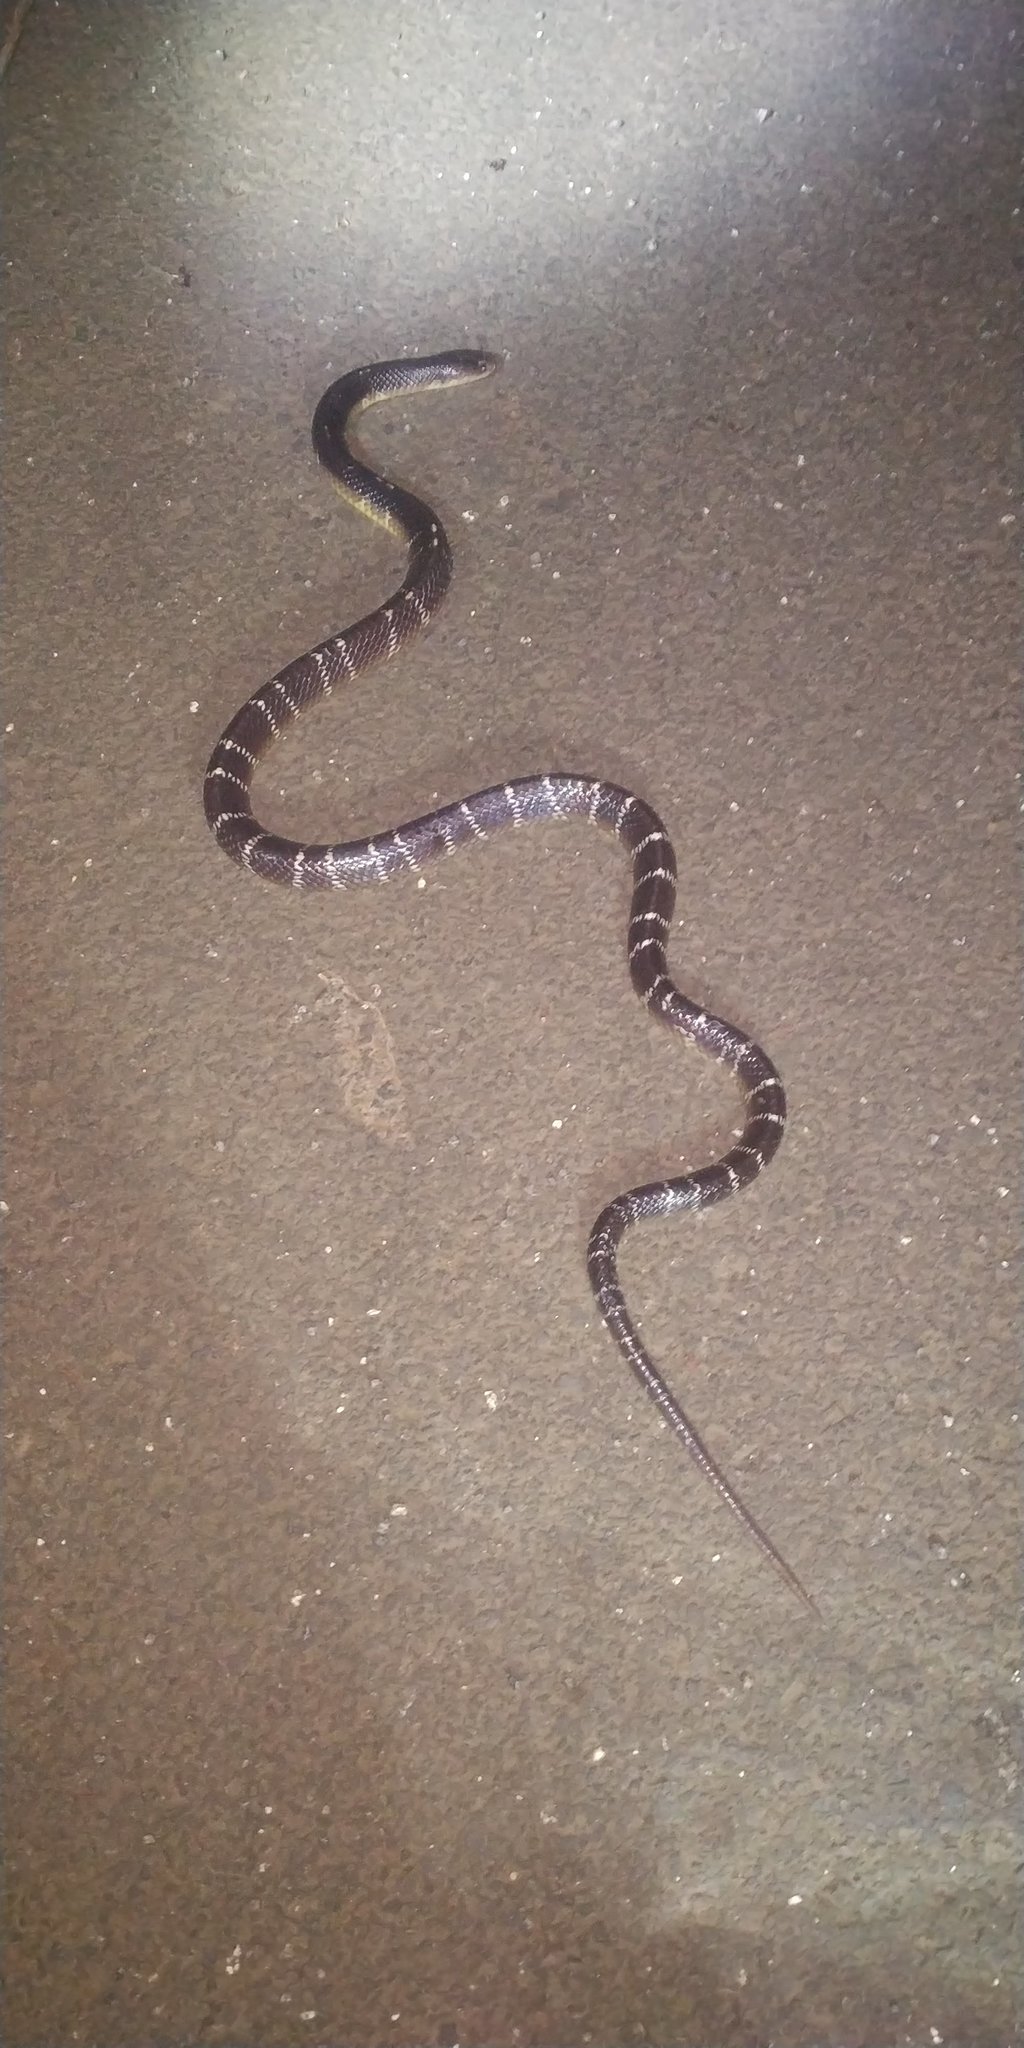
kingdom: Animalia
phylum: Chordata
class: Squamata
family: Elapidae
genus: Bungarus
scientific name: Bungarus caeruleus
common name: Common krait
